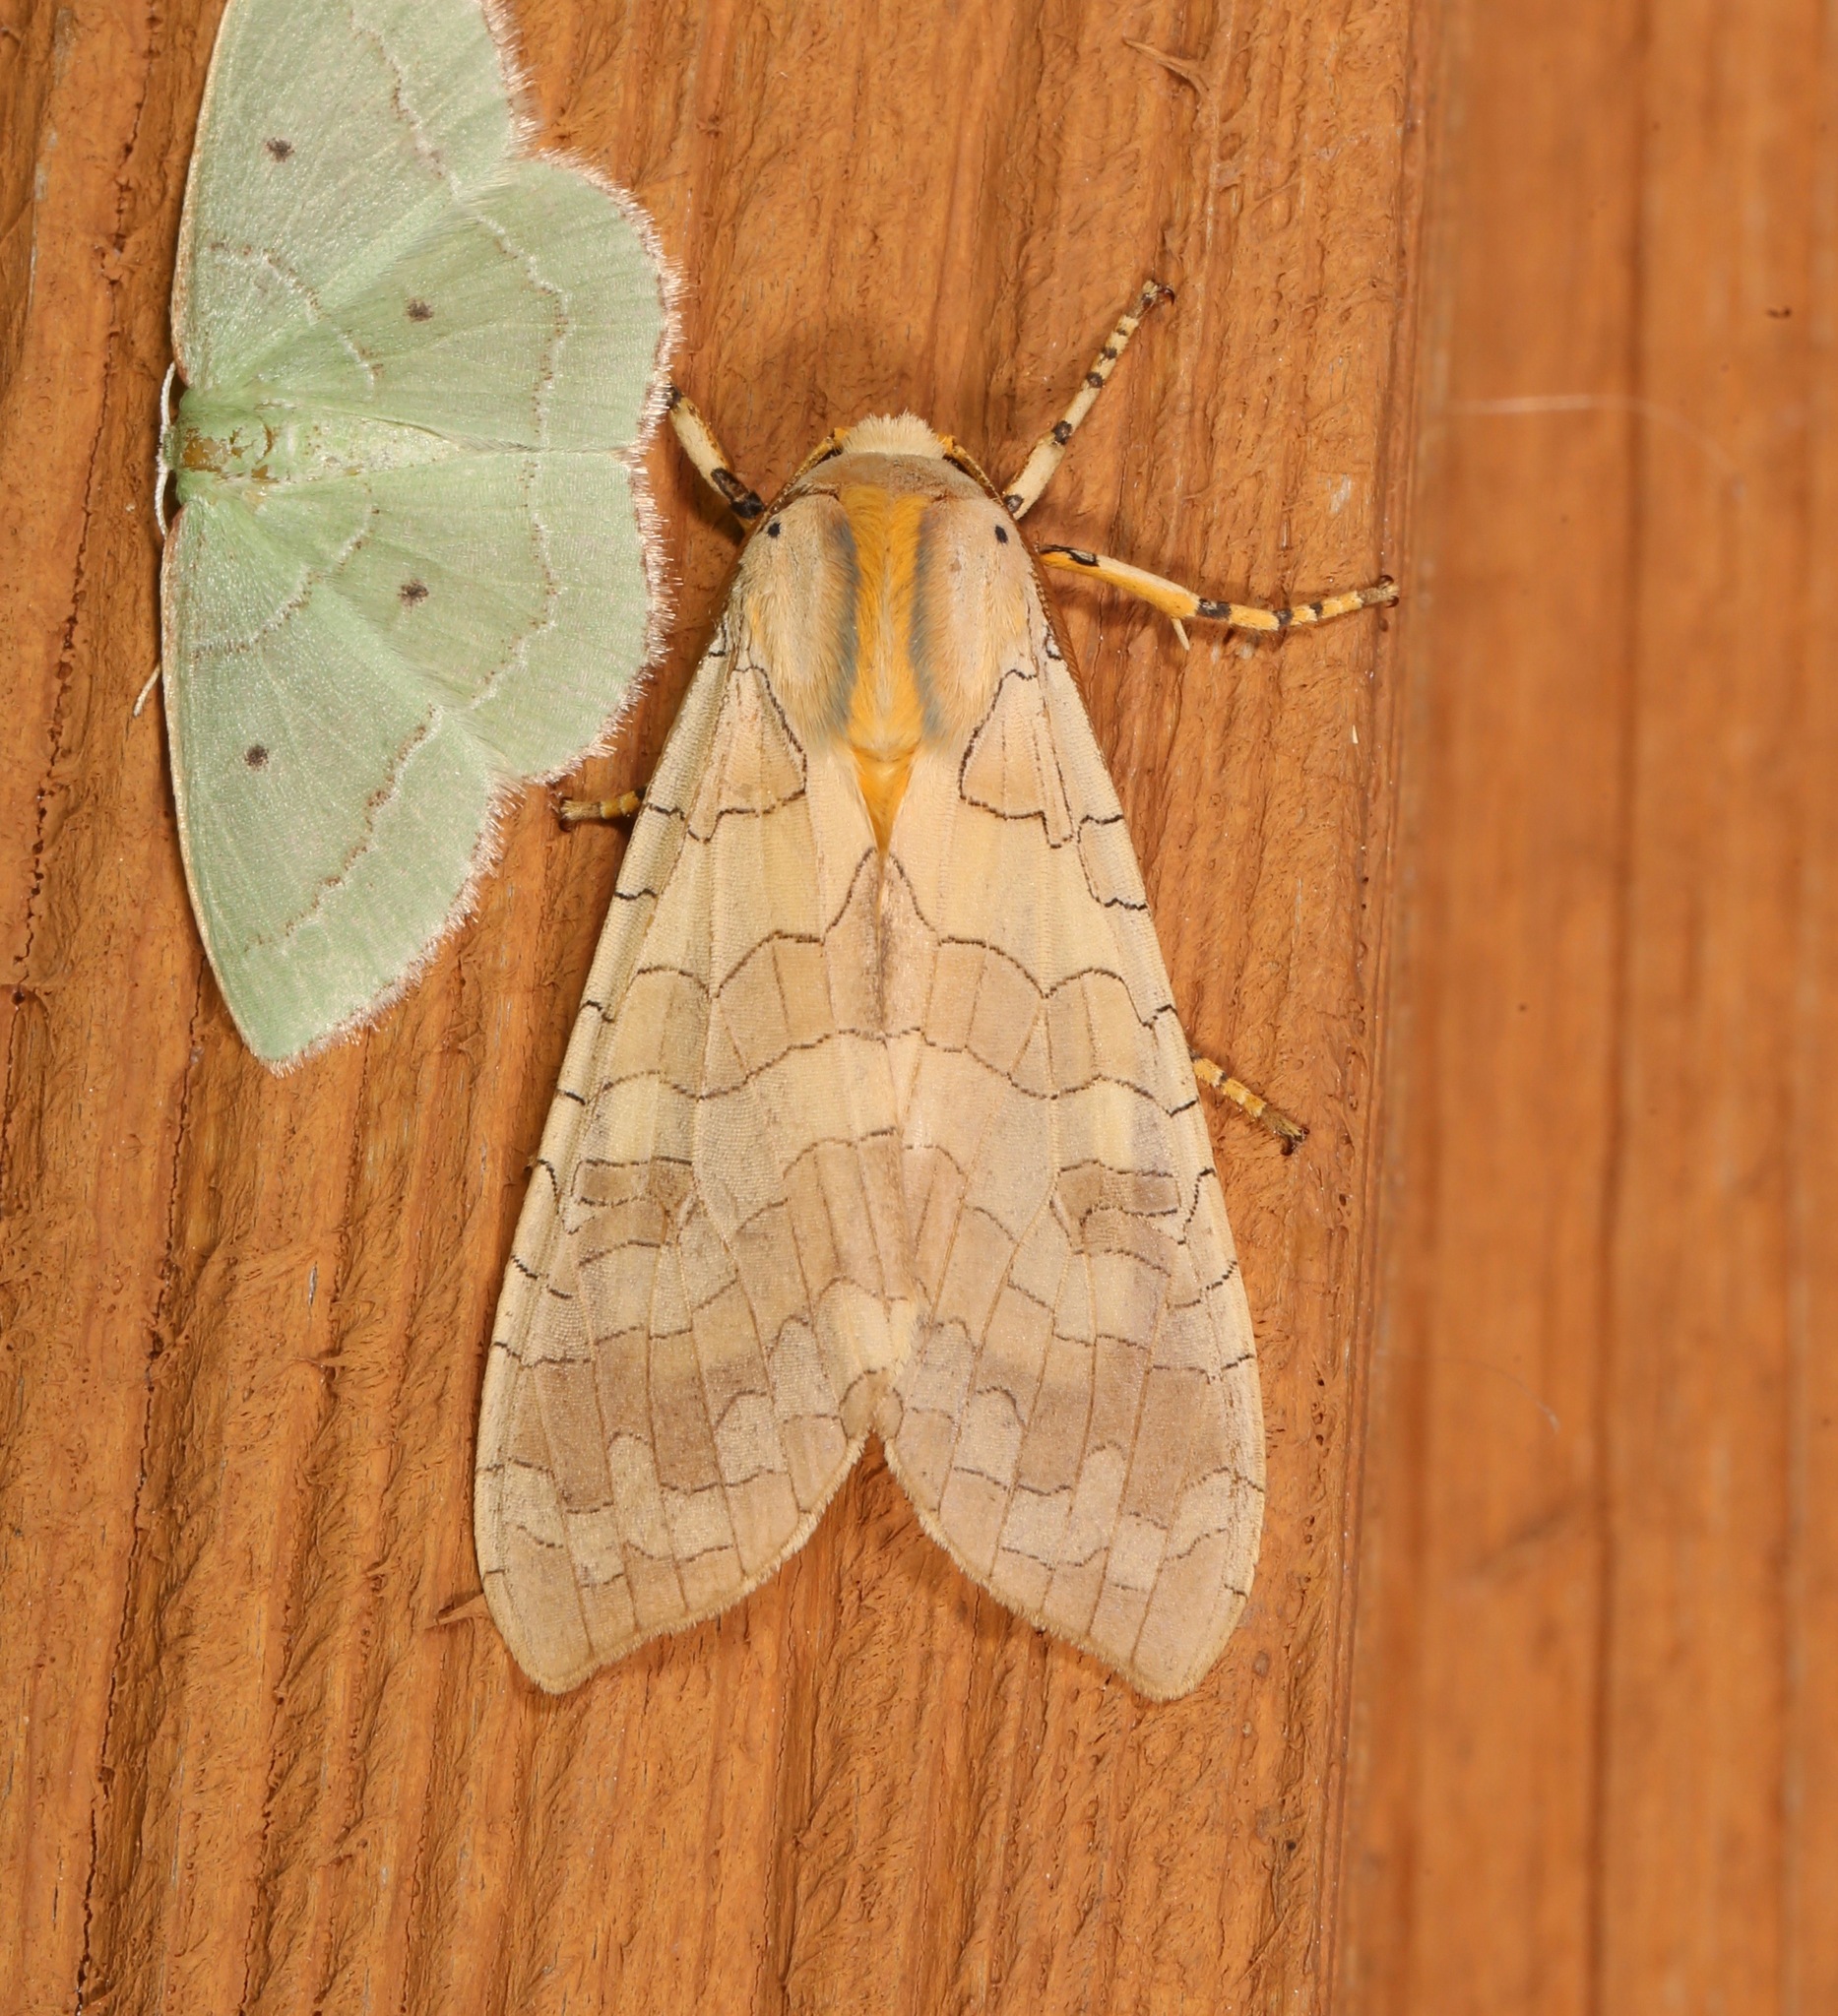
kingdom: Animalia
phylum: Arthropoda
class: Insecta
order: Lepidoptera
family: Erebidae
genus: Halysidota
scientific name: Halysidota
